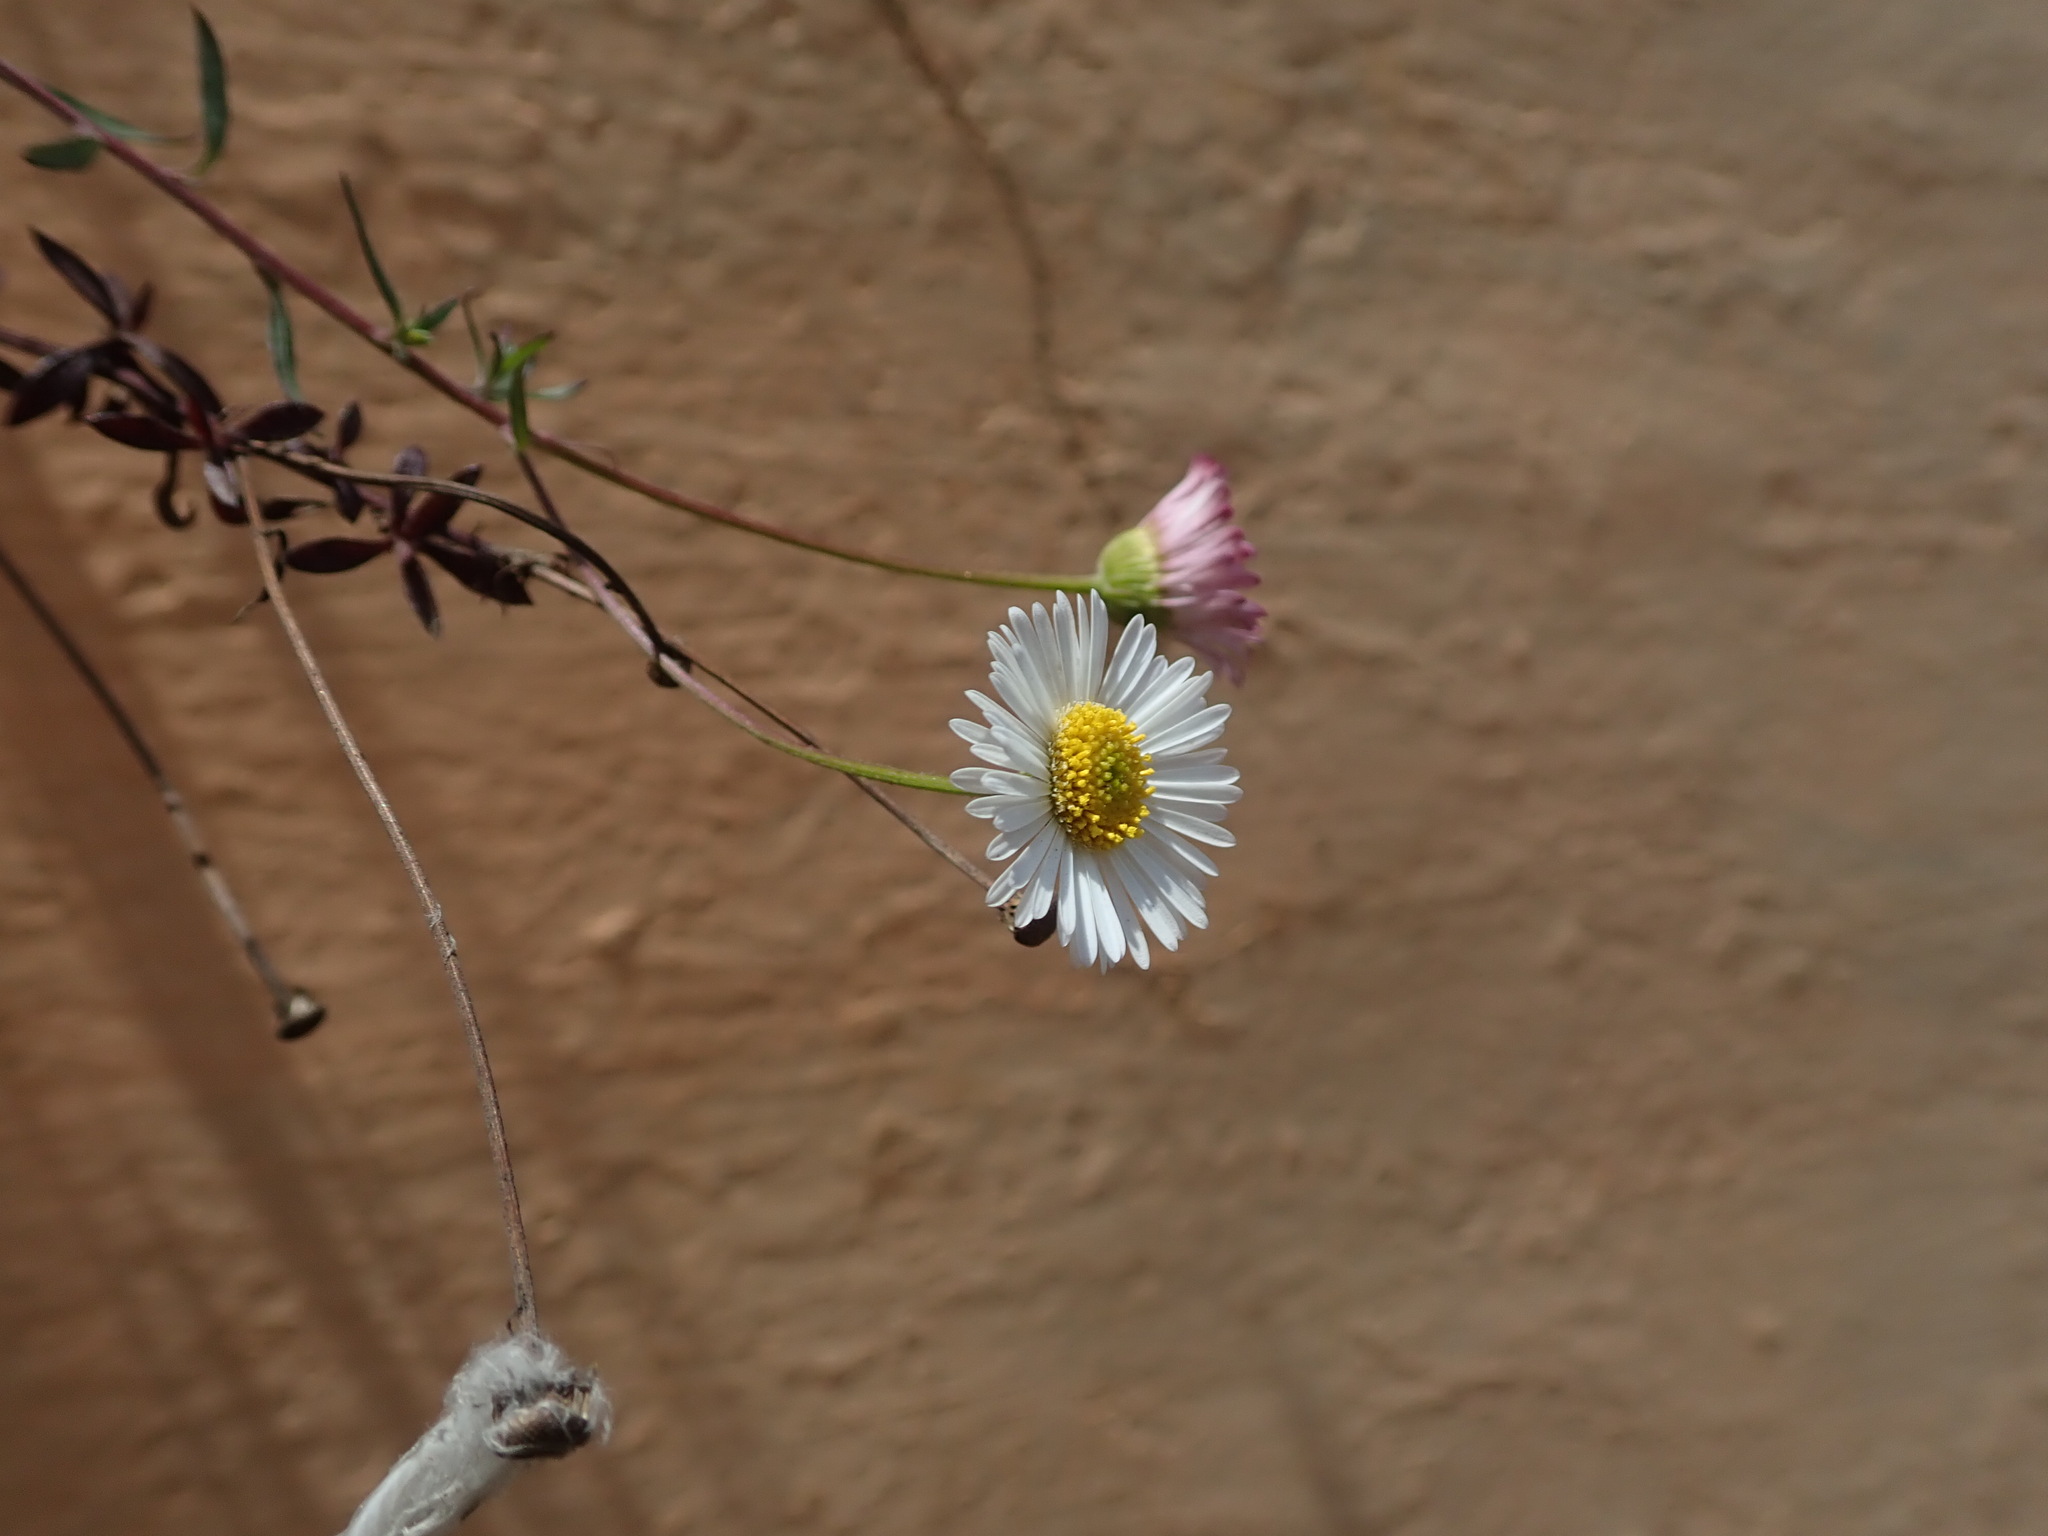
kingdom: Plantae
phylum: Tracheophyta
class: Magnoliopsida
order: Asterales
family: Asteraceae
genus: Erigeron
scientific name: Erigeron karvinskianus
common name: Mexican fleabane
